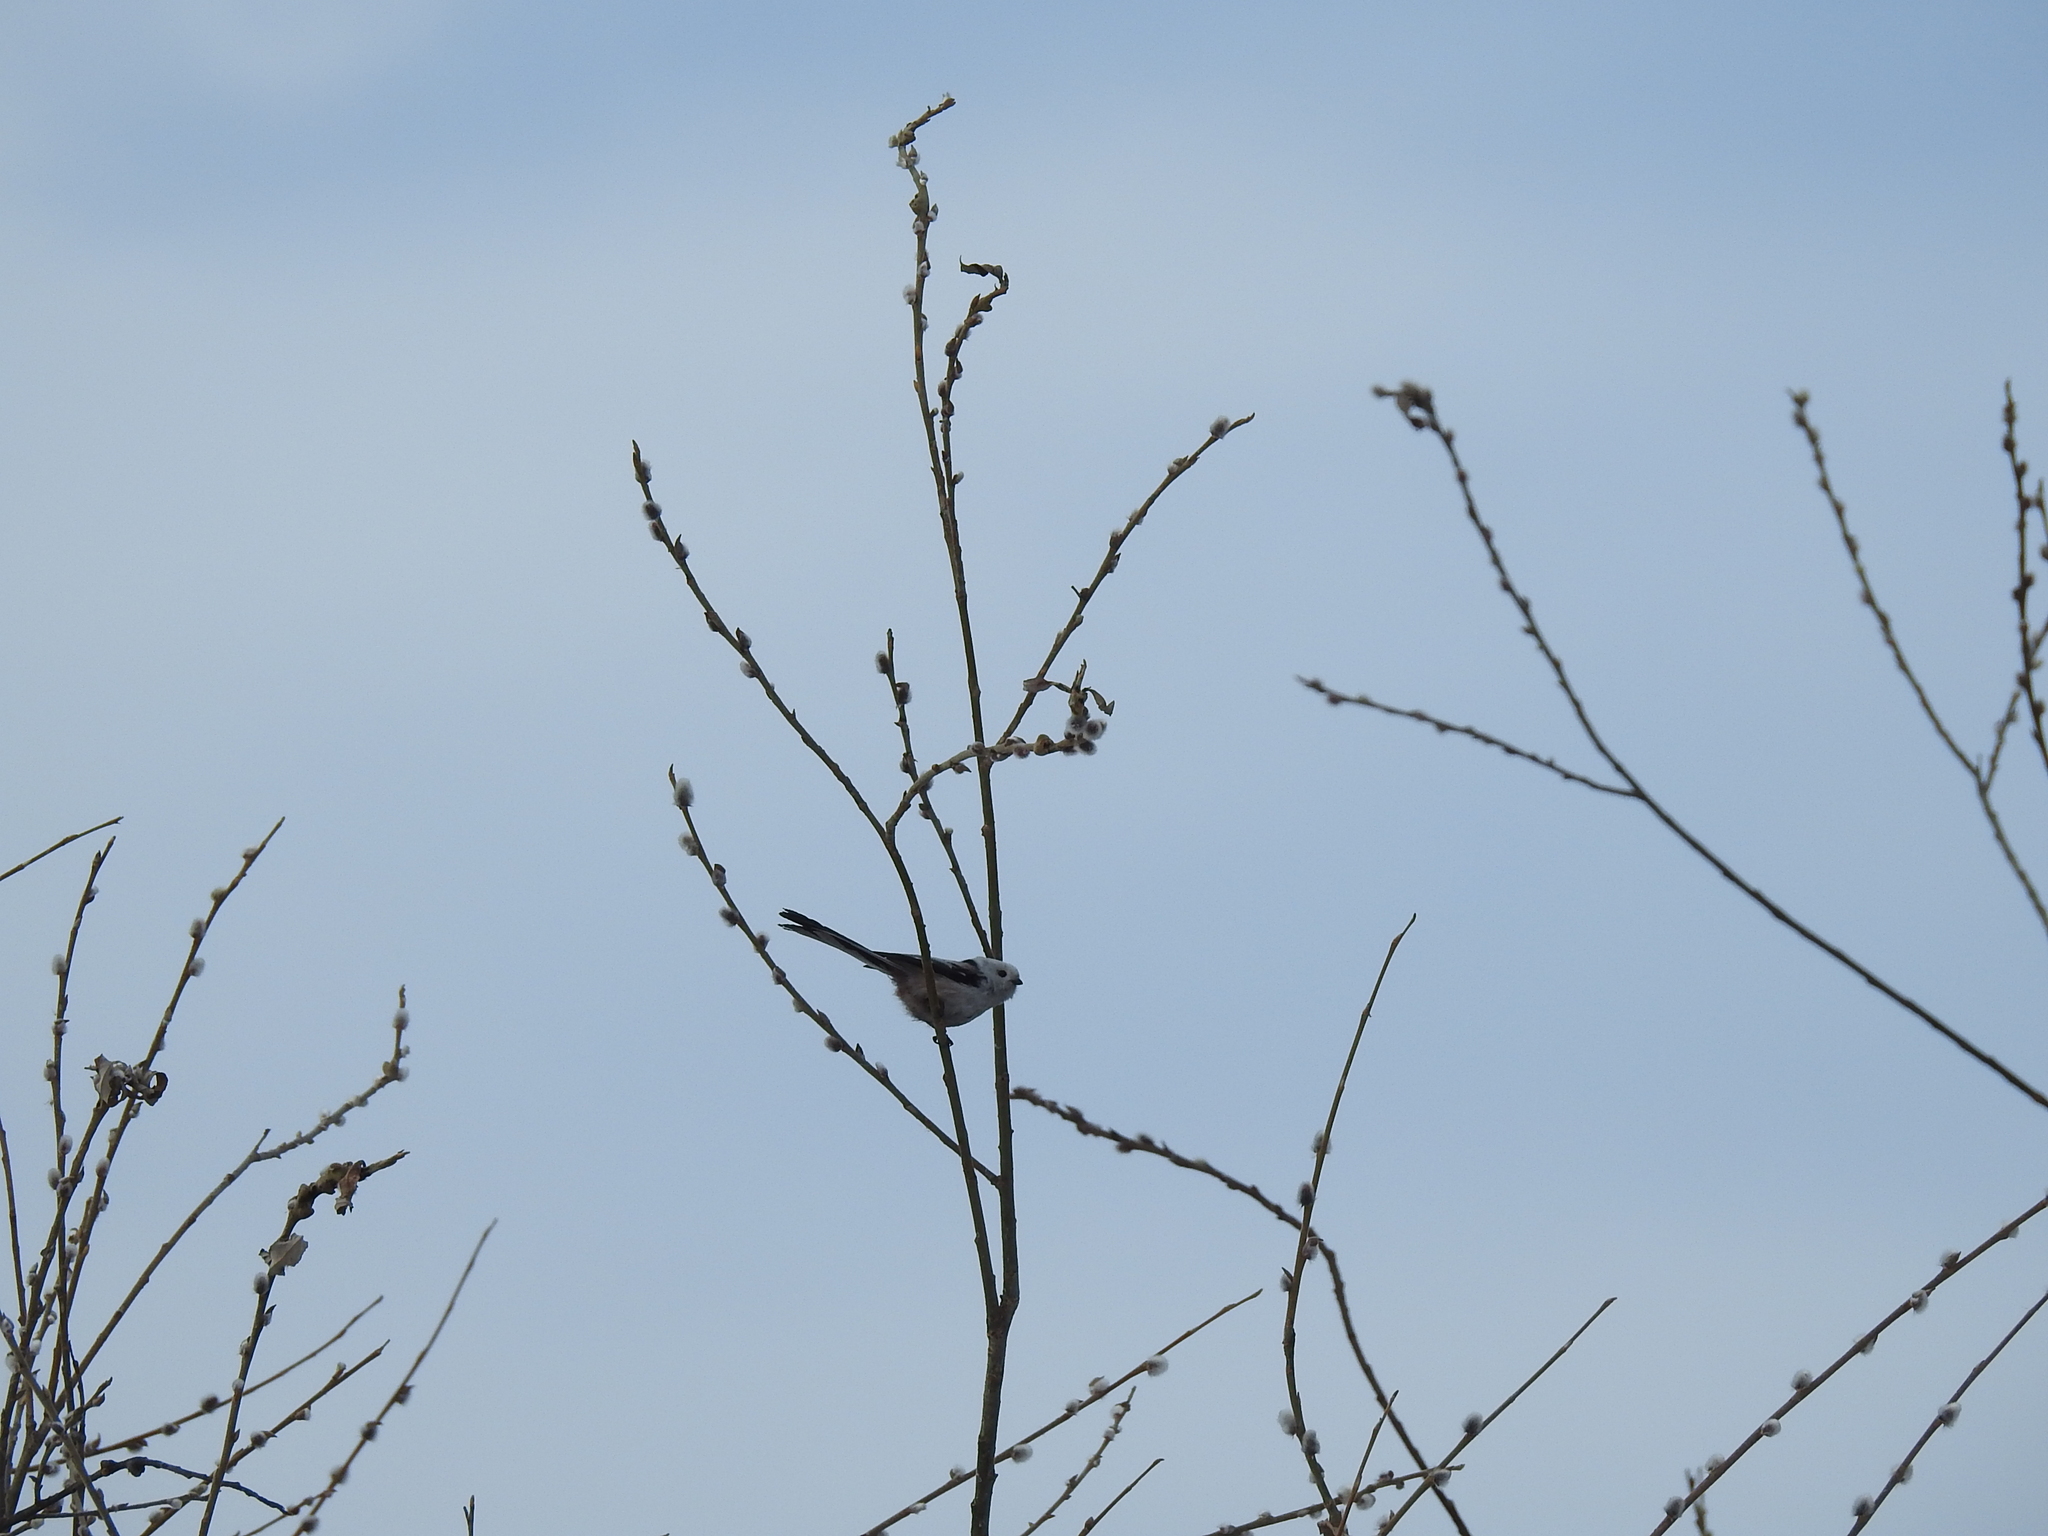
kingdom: Animalia
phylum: Chordata
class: Aves
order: Passeriformes
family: Aegithalidae
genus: Aegithalos
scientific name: Aegithalos caudatus
